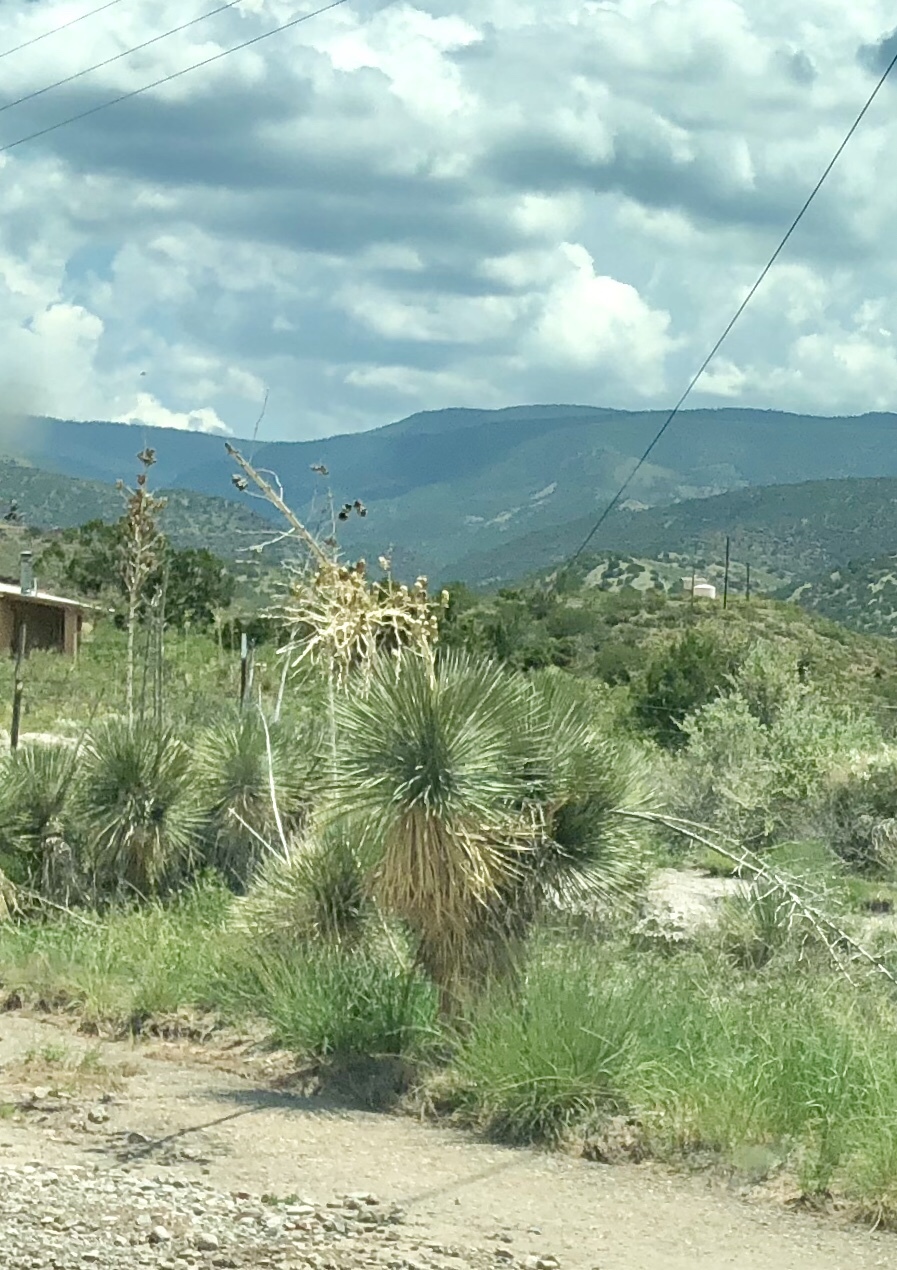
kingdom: Plantae
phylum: Tracheophyta
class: Liliopsida
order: Asparagales
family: Asparagaceae
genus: Yucca
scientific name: Yucca elata
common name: Palmella
